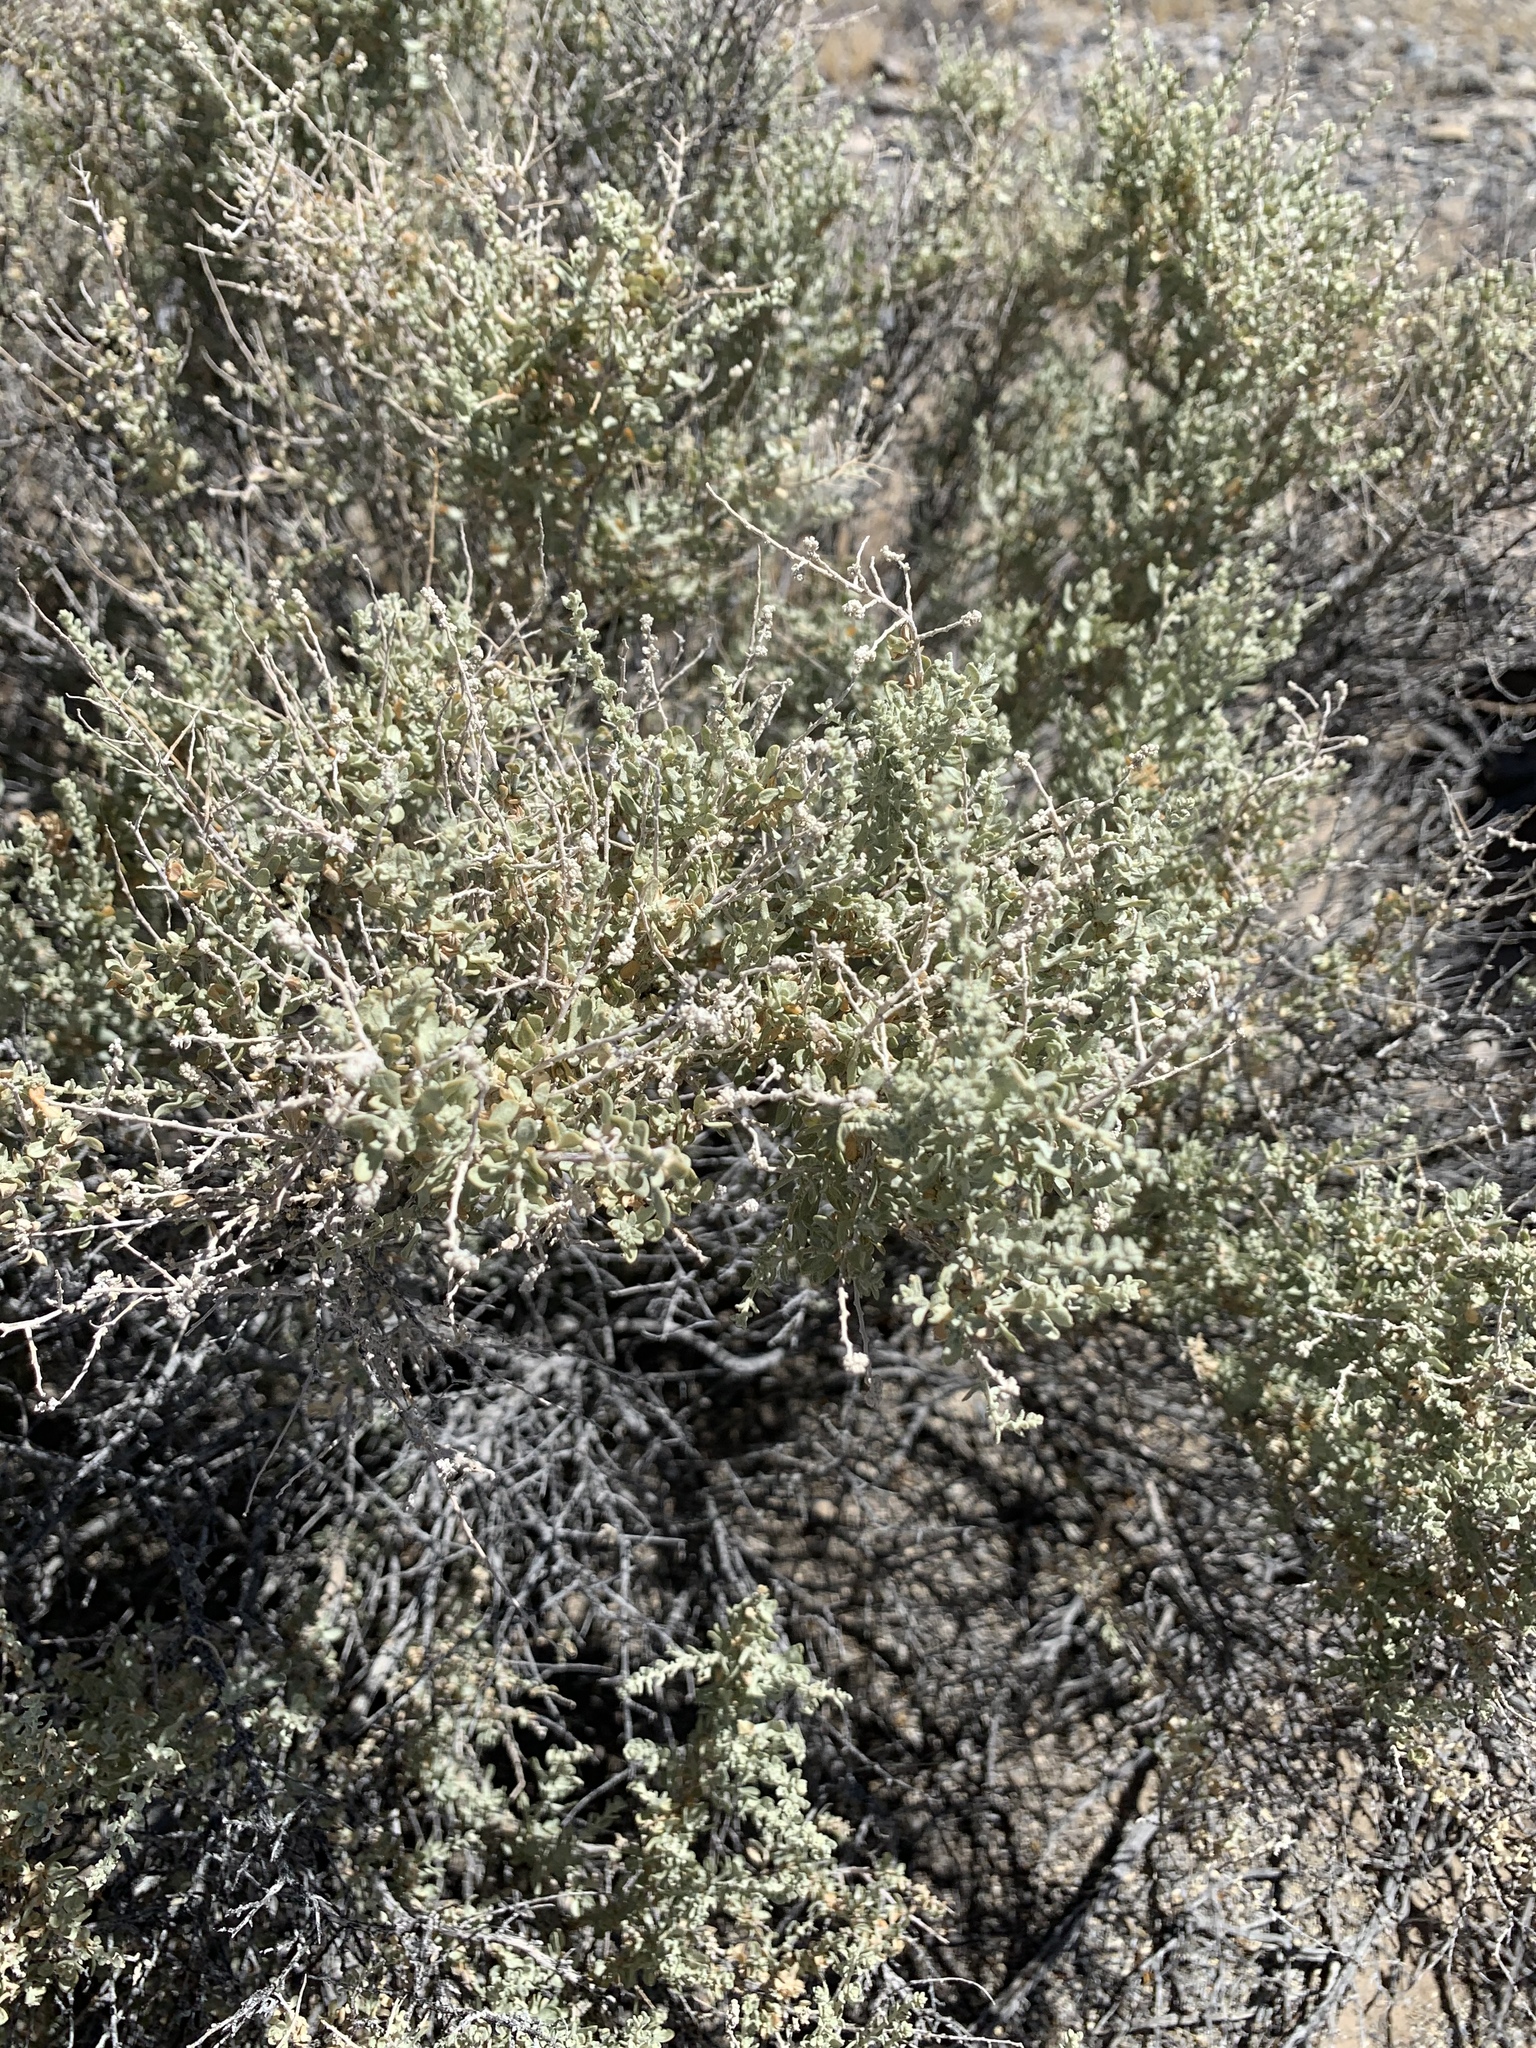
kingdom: Plantae
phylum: Tracheophyta
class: Magnoliopsida
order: Caryophyllales
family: Amaranthaceae
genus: Atriplex
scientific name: Atriplex polycarpa
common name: Desert saltbush
